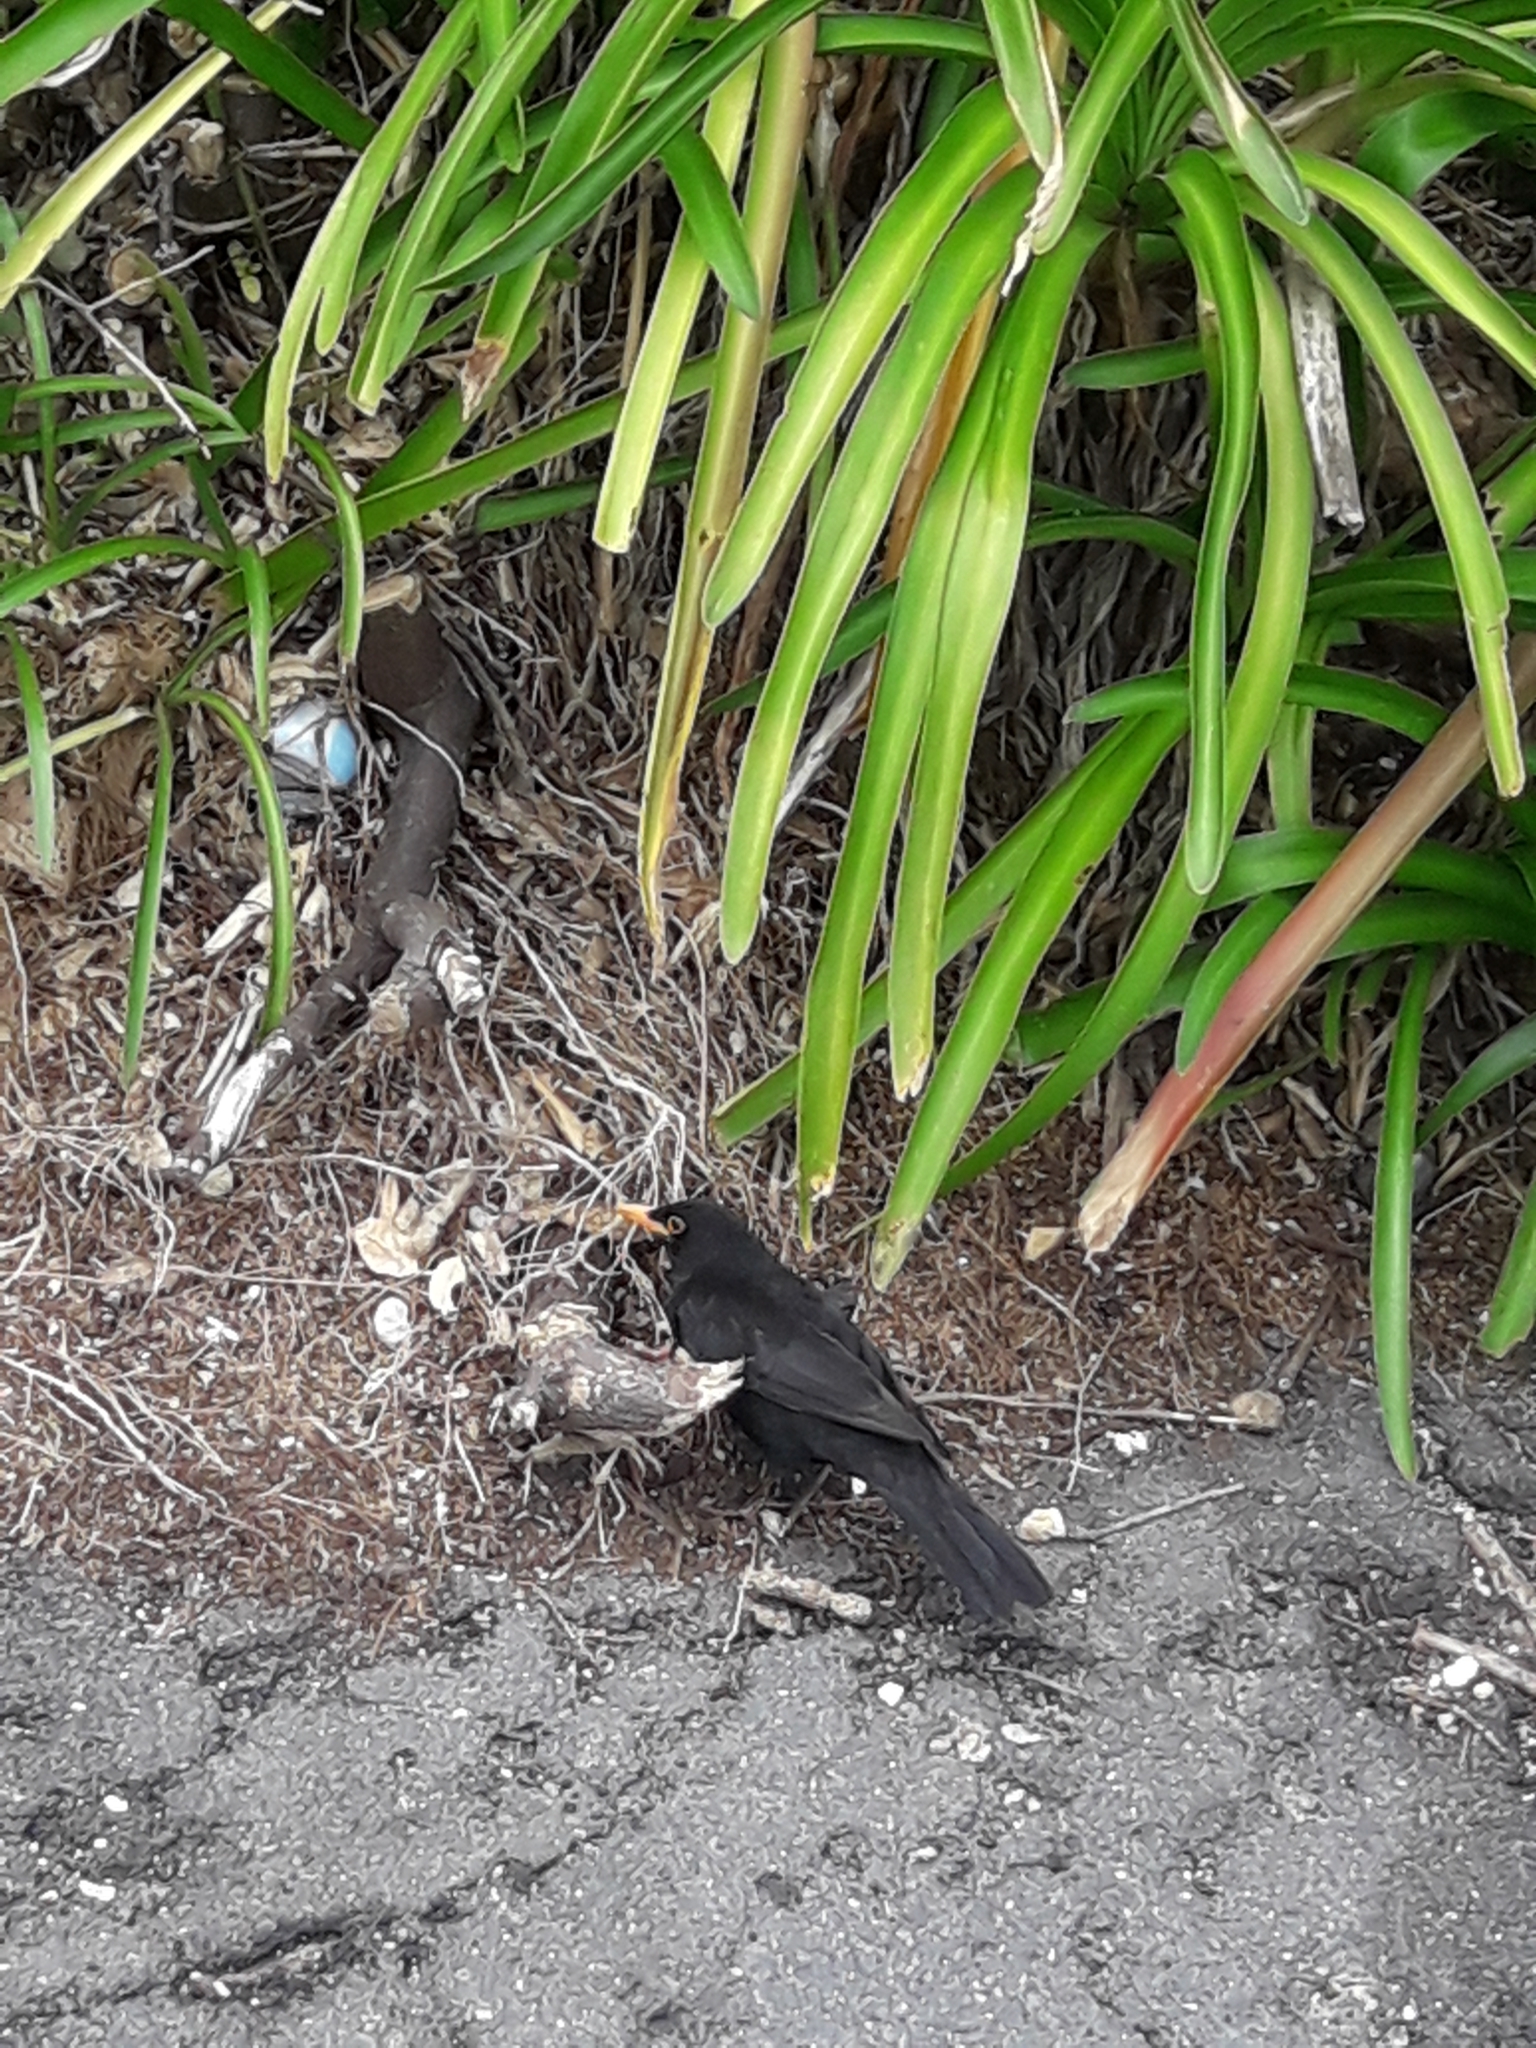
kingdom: Animalia
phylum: Chordata
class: Aves
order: Passeriformes
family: Turdidae
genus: Turdus
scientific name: Turdus merula
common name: Common blackbird
